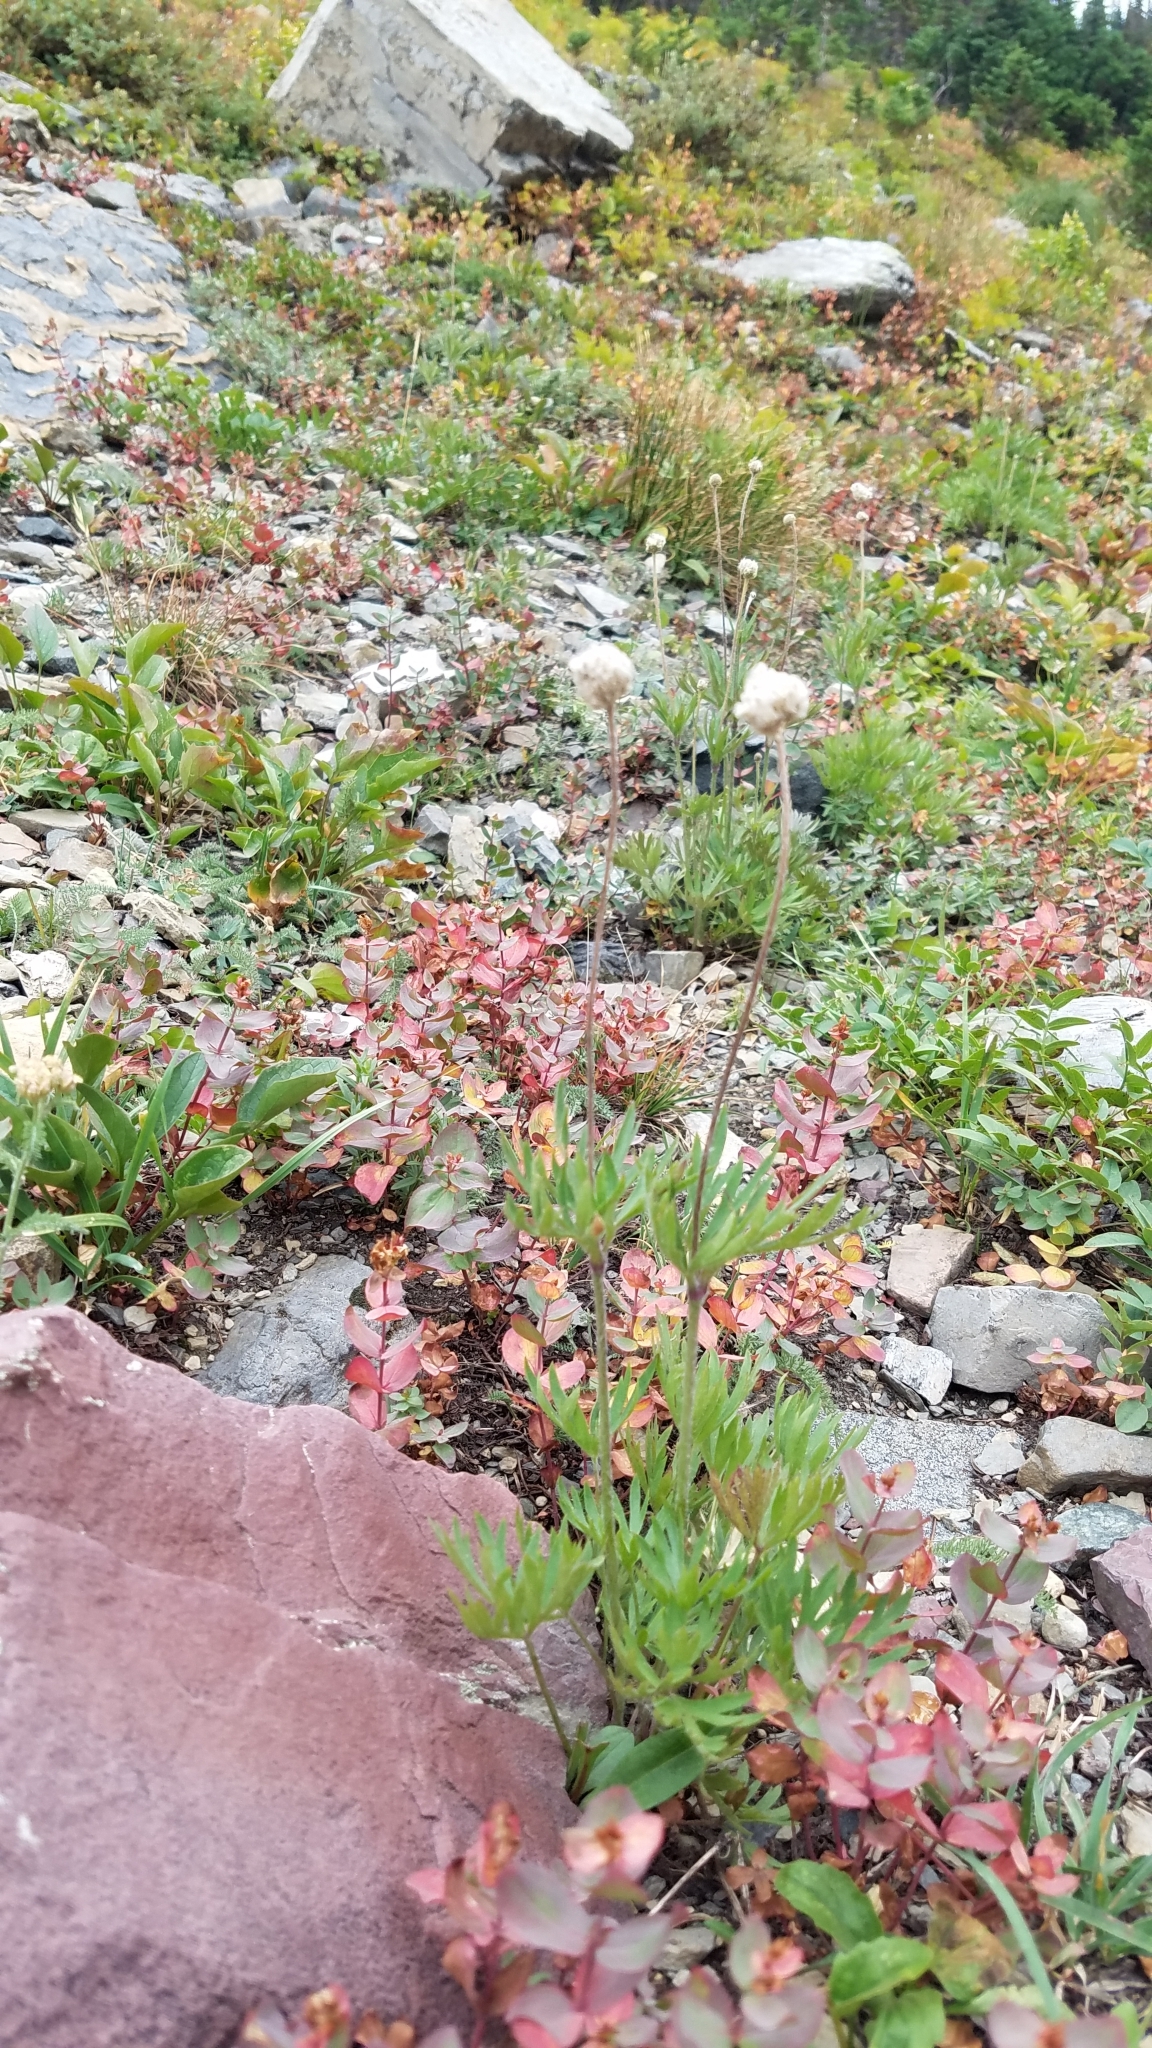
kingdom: Plantae
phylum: Tracheophyta
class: Magnoliopsida
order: Ranunculales
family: Ranunculaceae
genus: Anemone
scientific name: Anemone multifida
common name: Bird's-foot anemone
